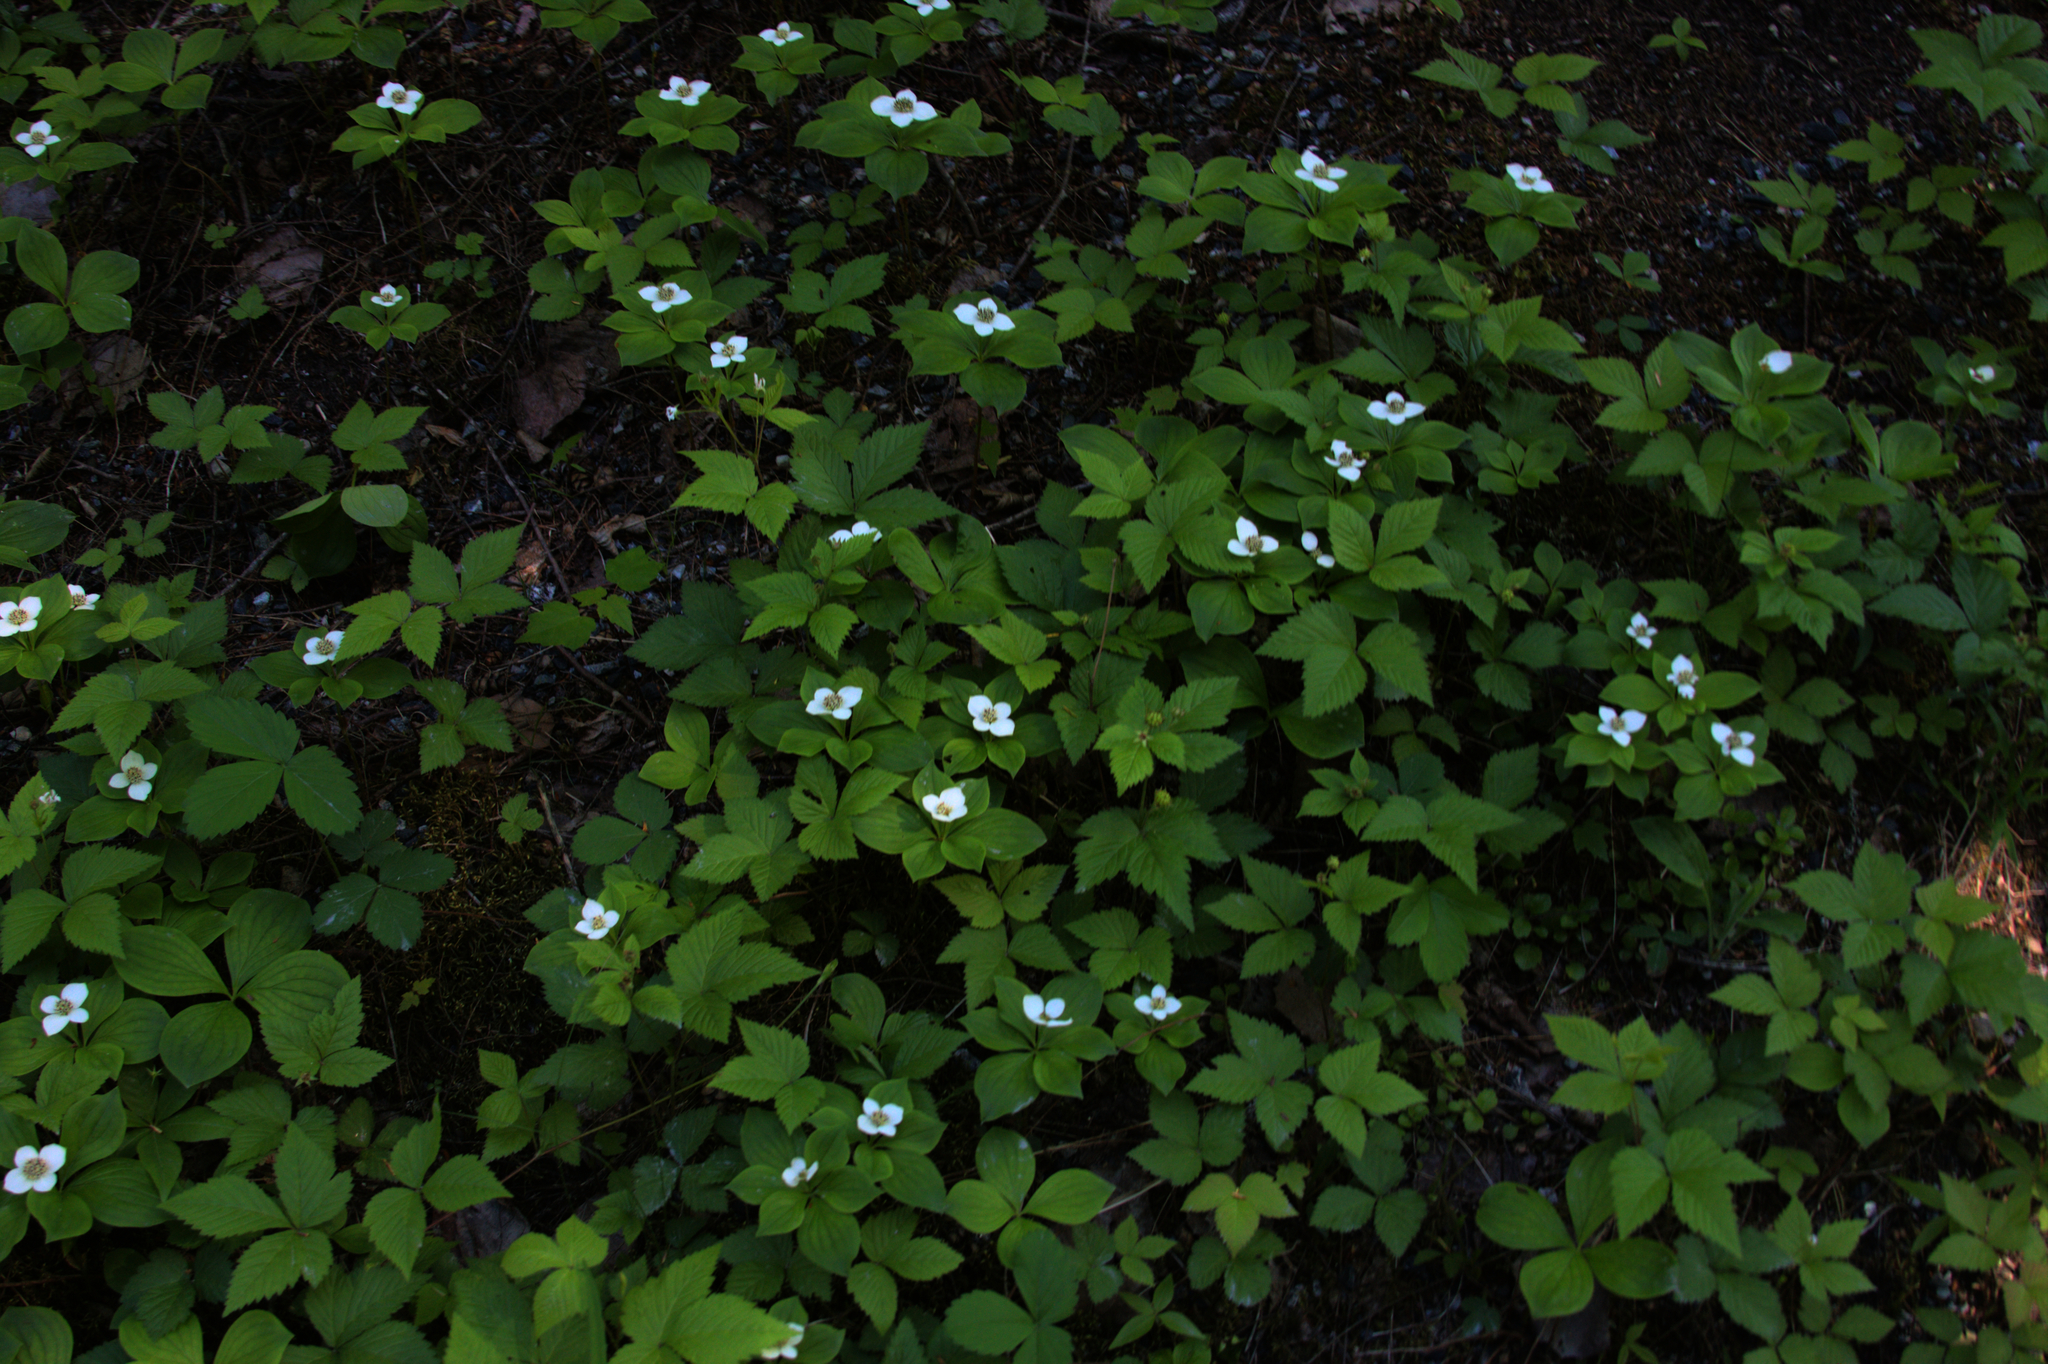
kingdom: Plantae
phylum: Tracheophyta
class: Magnoliopsida
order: Cornales
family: Cornaceae
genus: Cornus
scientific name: Cornus canadensis
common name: Creeping dogwood
